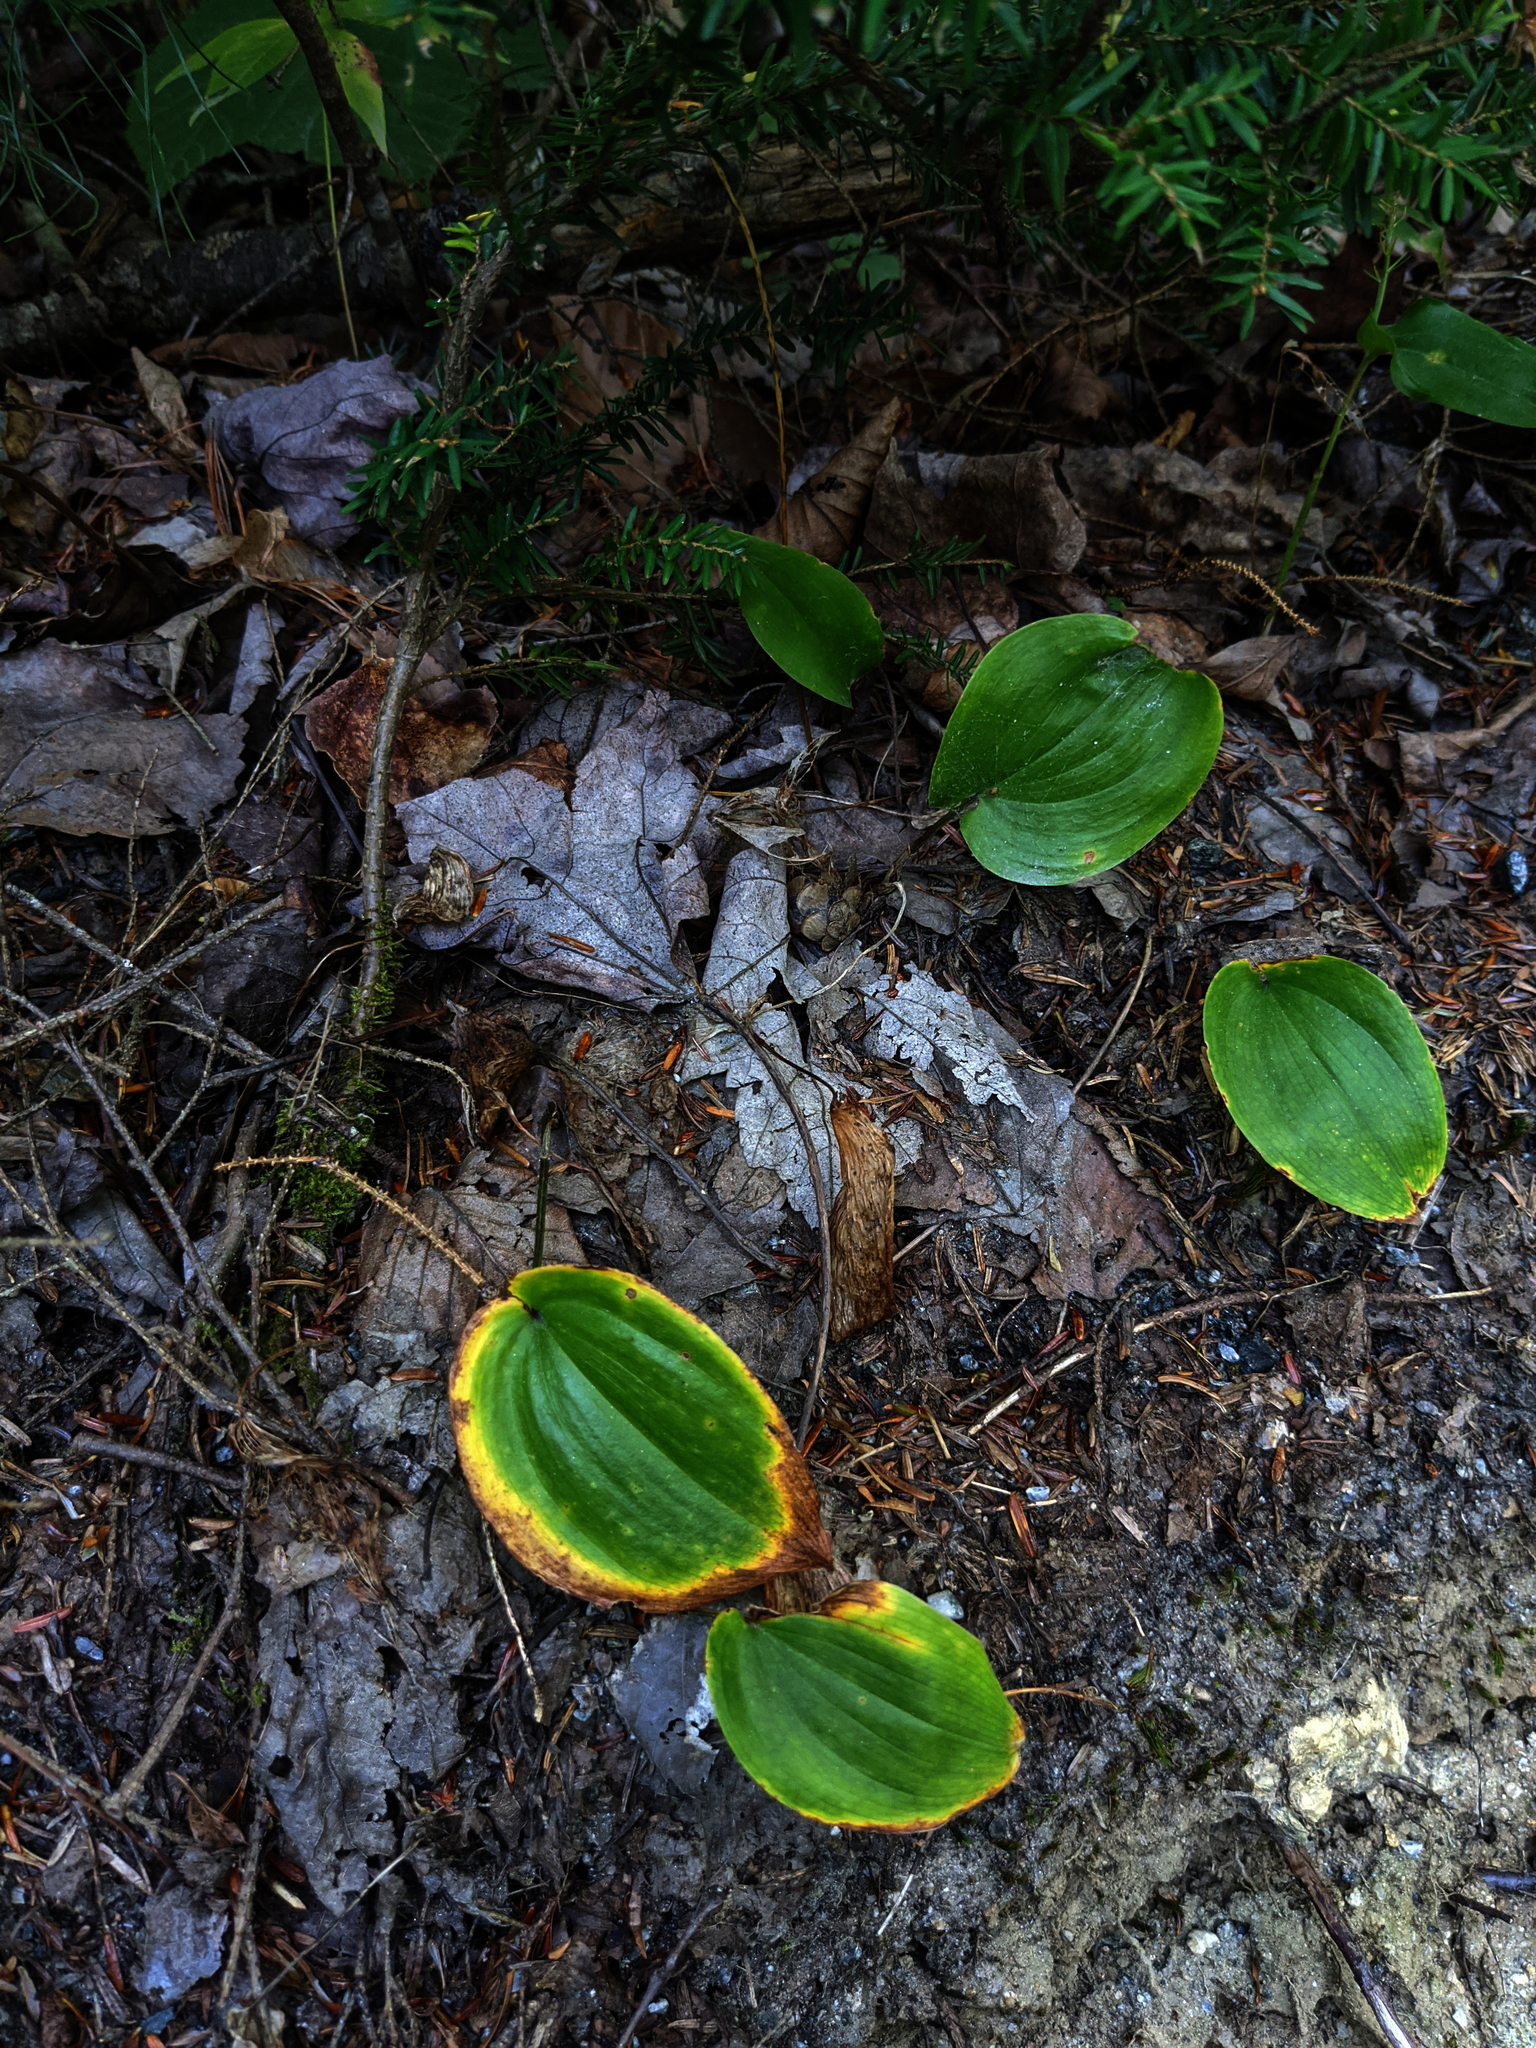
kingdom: Plantae
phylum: Tracheophyta
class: Liliopsida
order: Asparagales
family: Asparagaceae
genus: Maianthemum
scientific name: Maianthemum canadense
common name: False lily-of-the-valley
